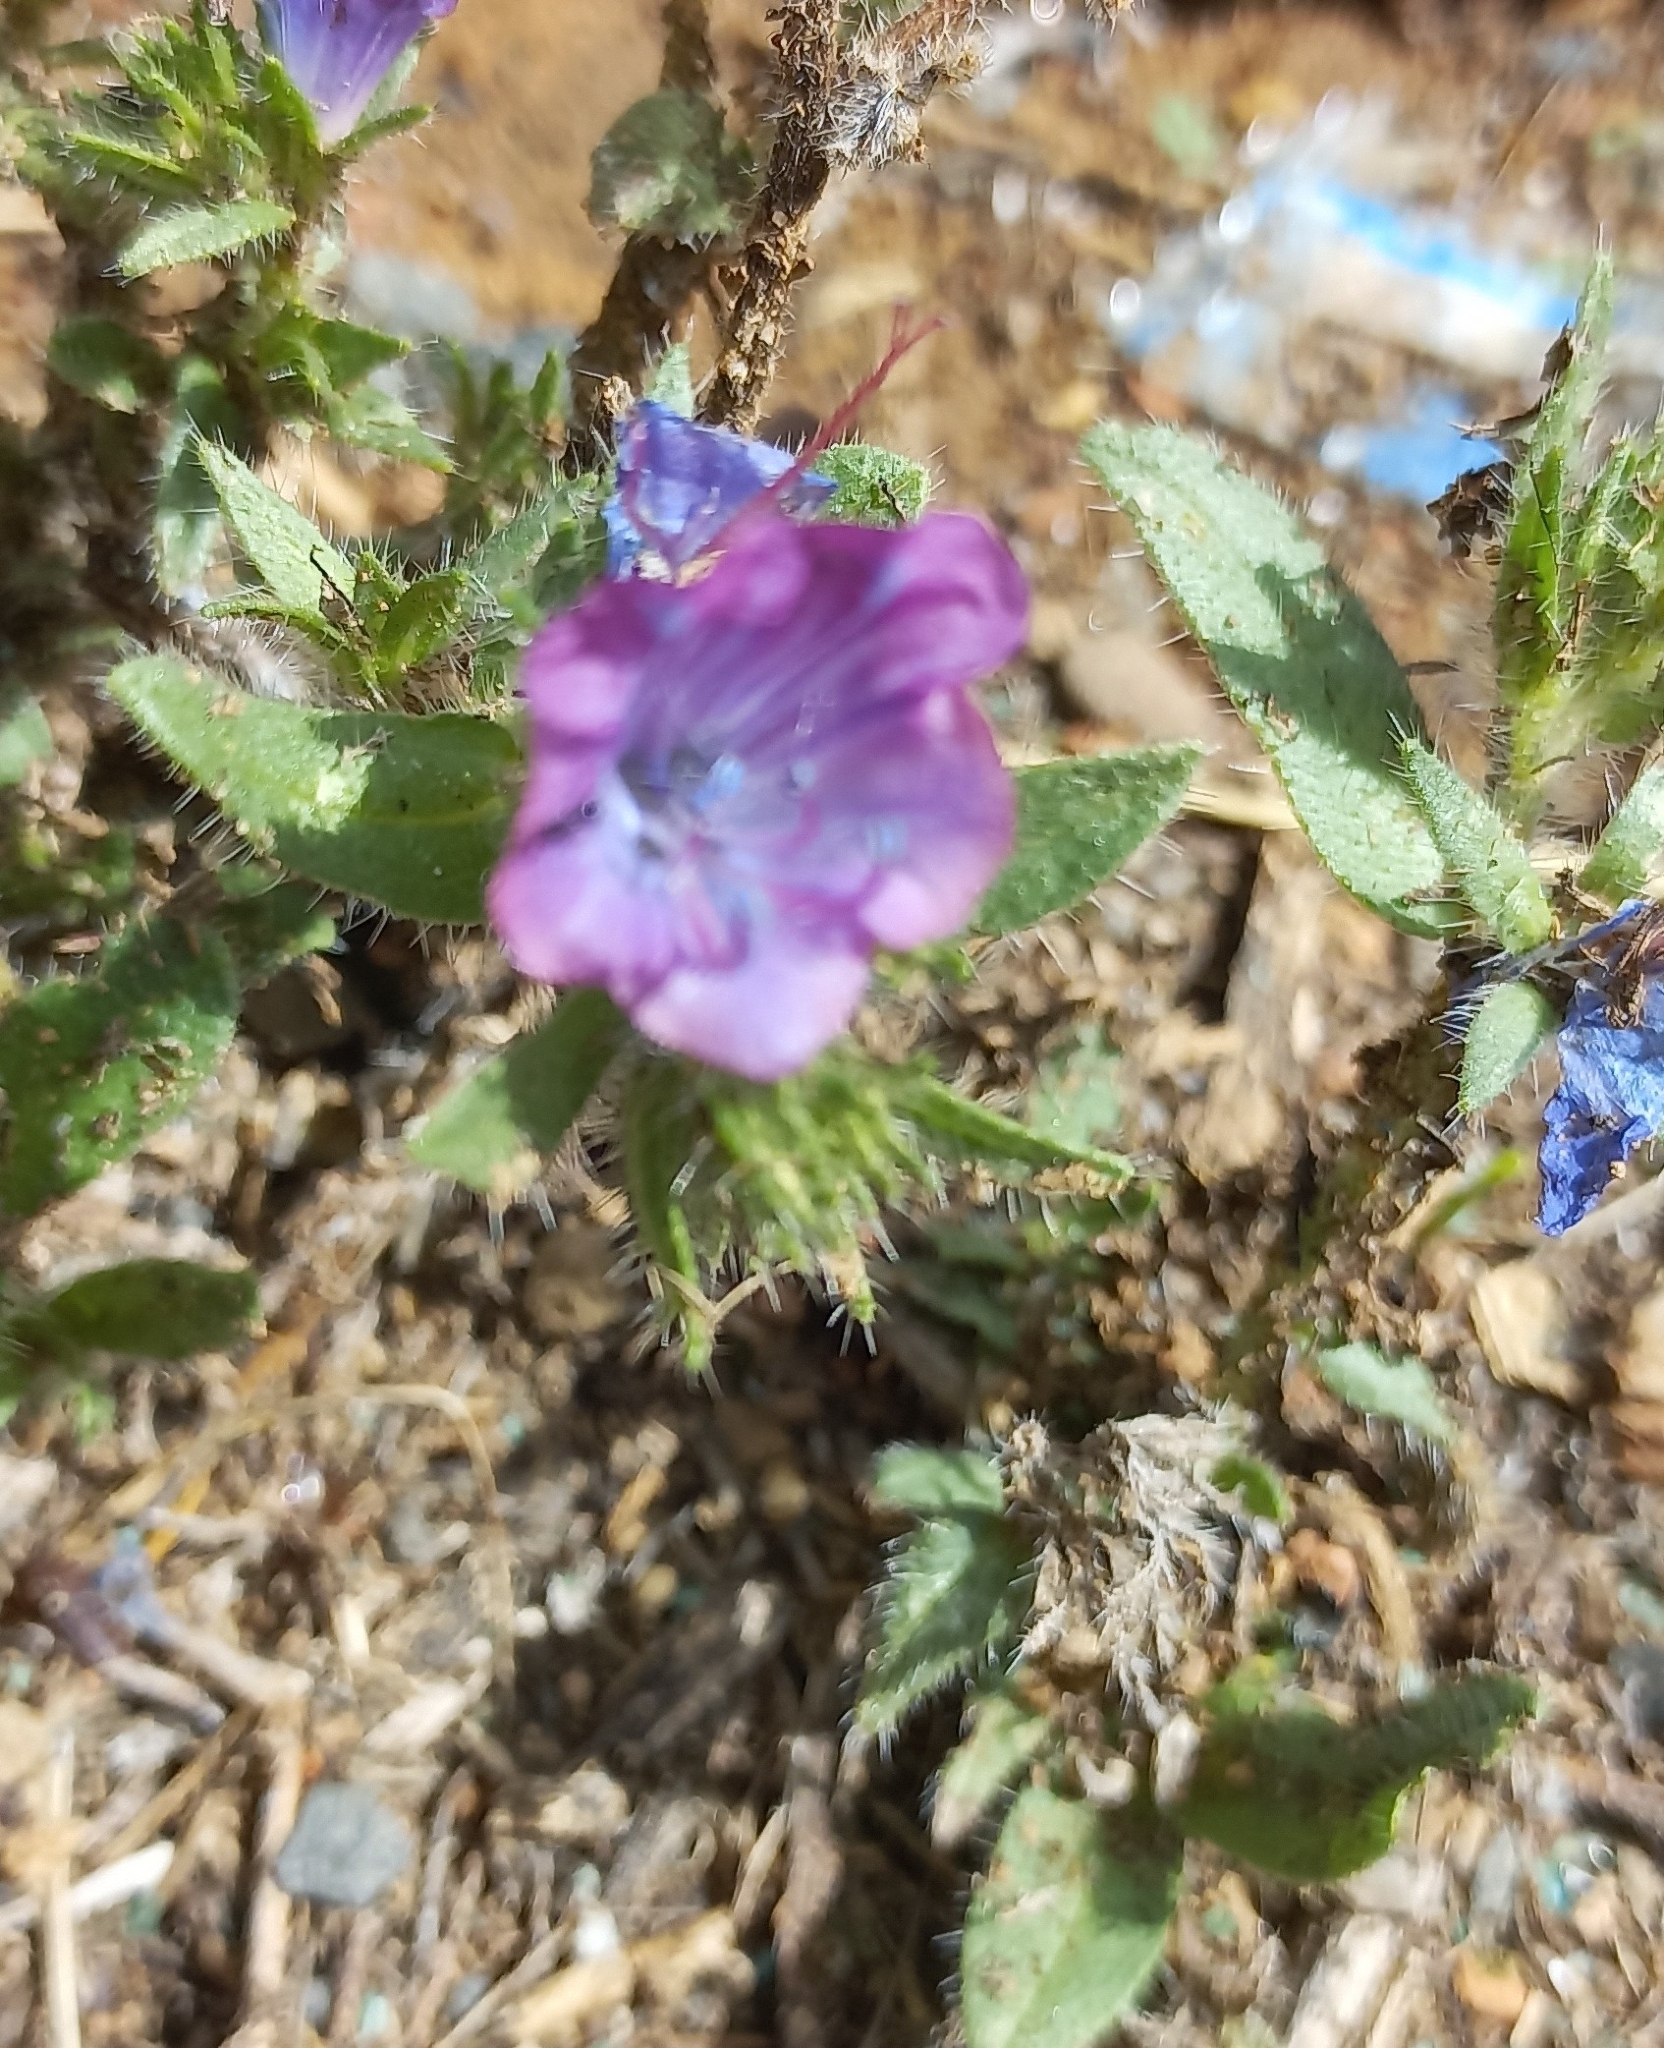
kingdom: Plantae
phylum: Tracheophyta
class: Magnoliopsida
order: Boraginales
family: Boraginaceae
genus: Echium
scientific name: Echium plantagineum
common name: Purple viper's-bugloss
